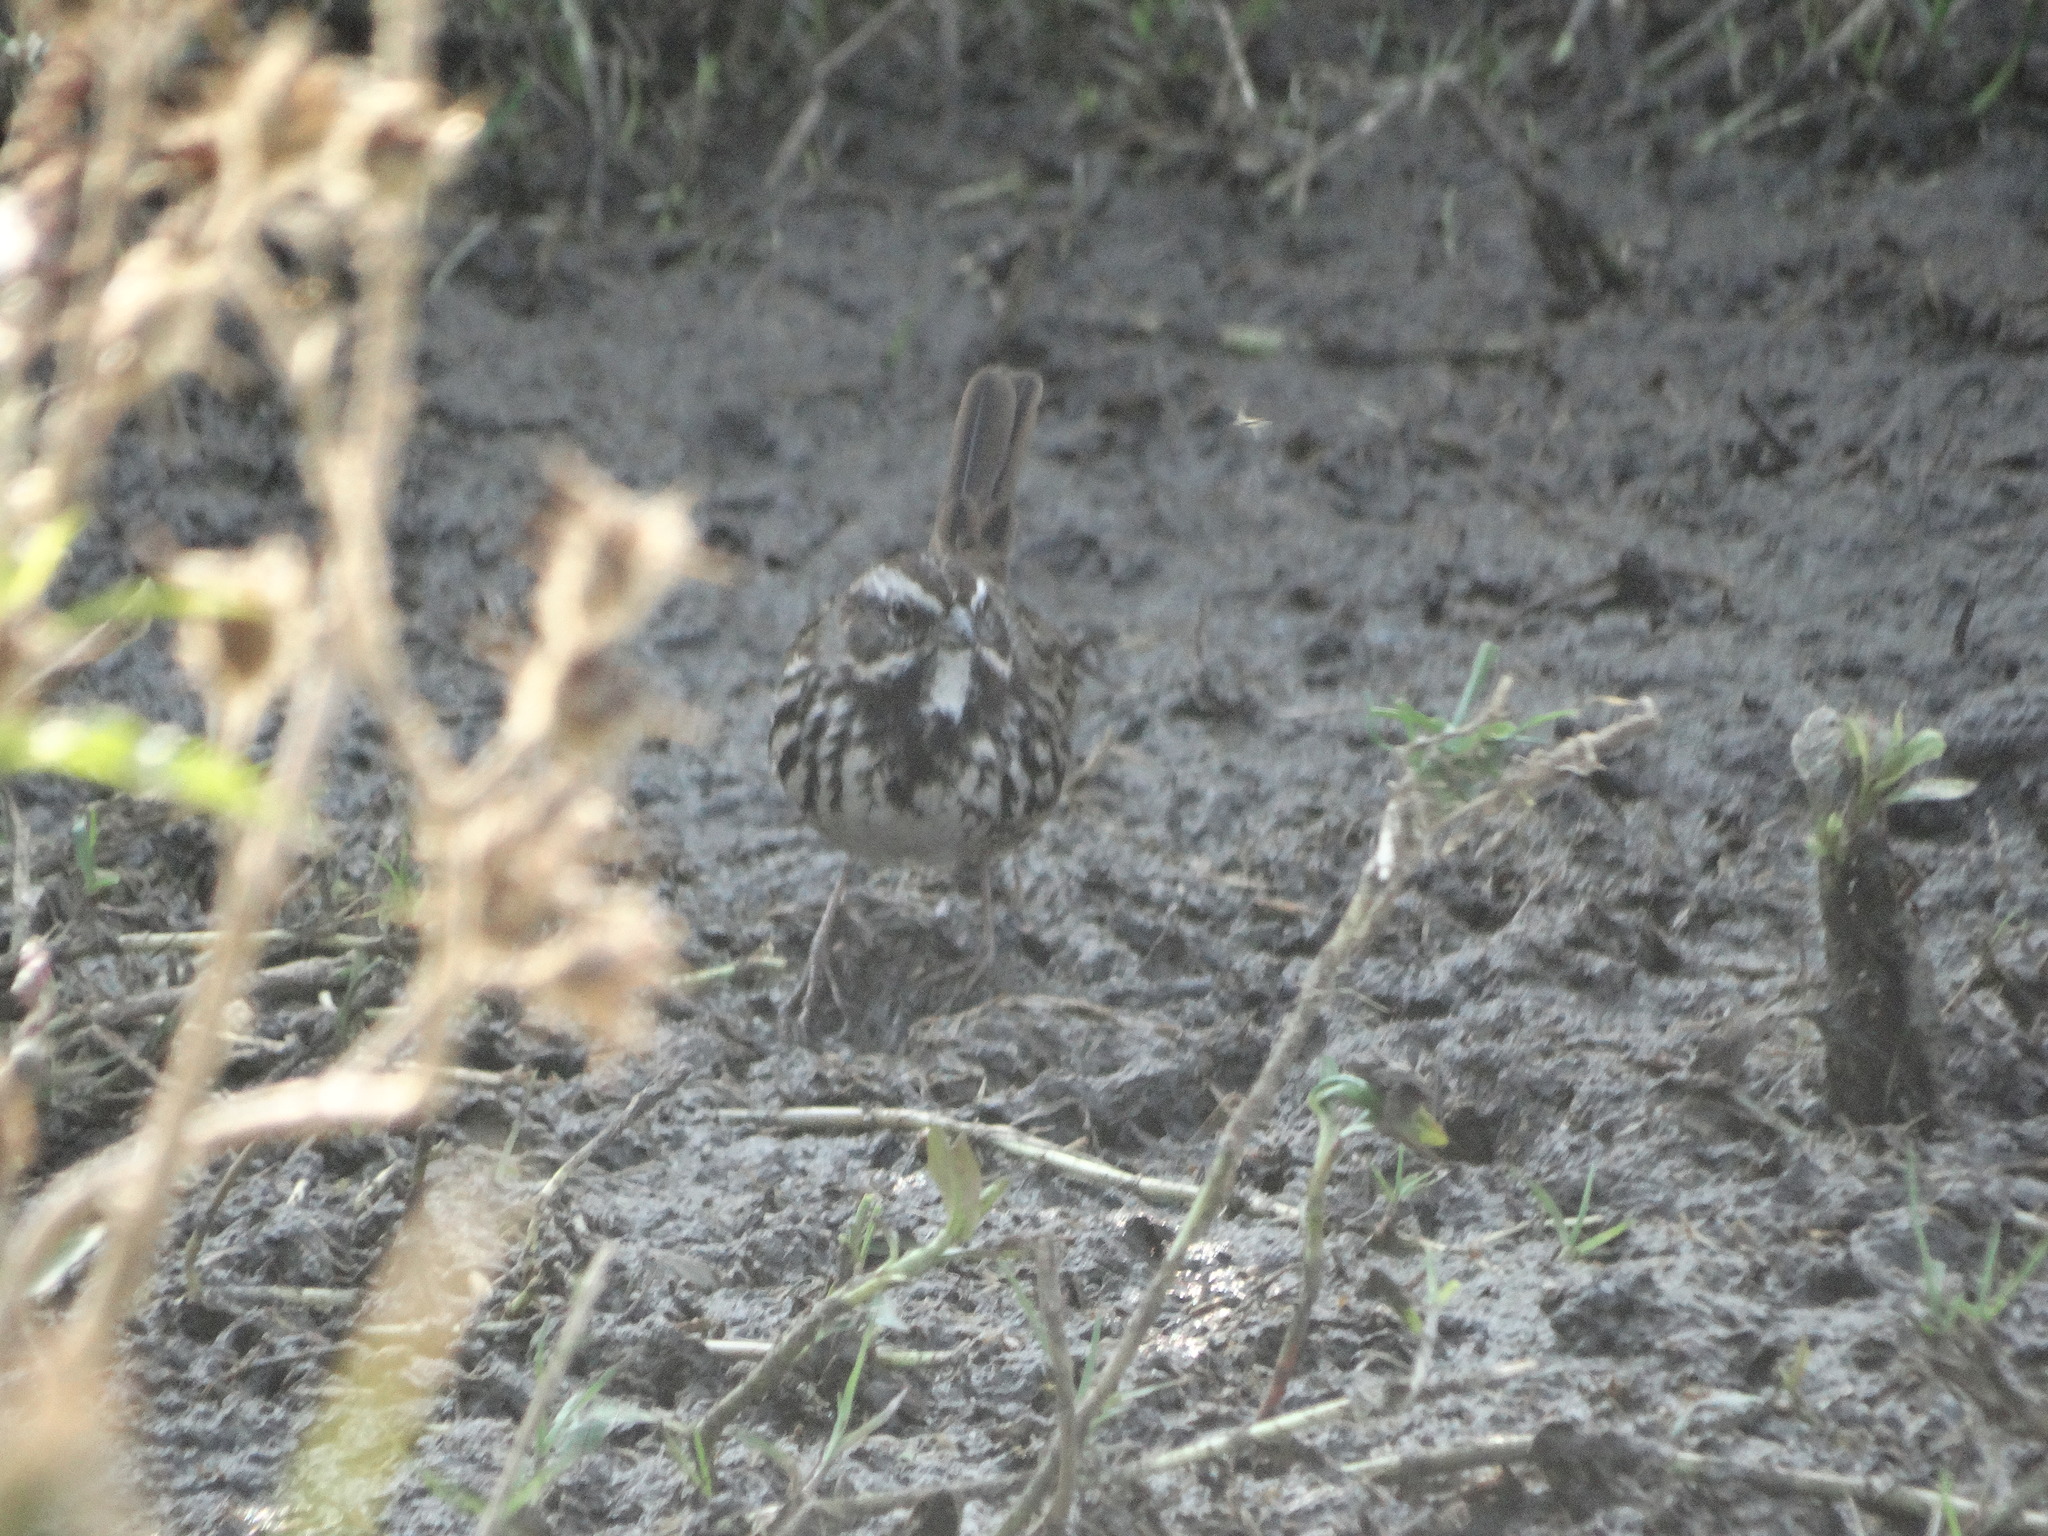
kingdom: Animalia
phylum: Chordata
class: Aves
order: Passeriformes
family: Passerellidae
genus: Melospiza
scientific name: Melospiza melodia
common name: Song sparrow
